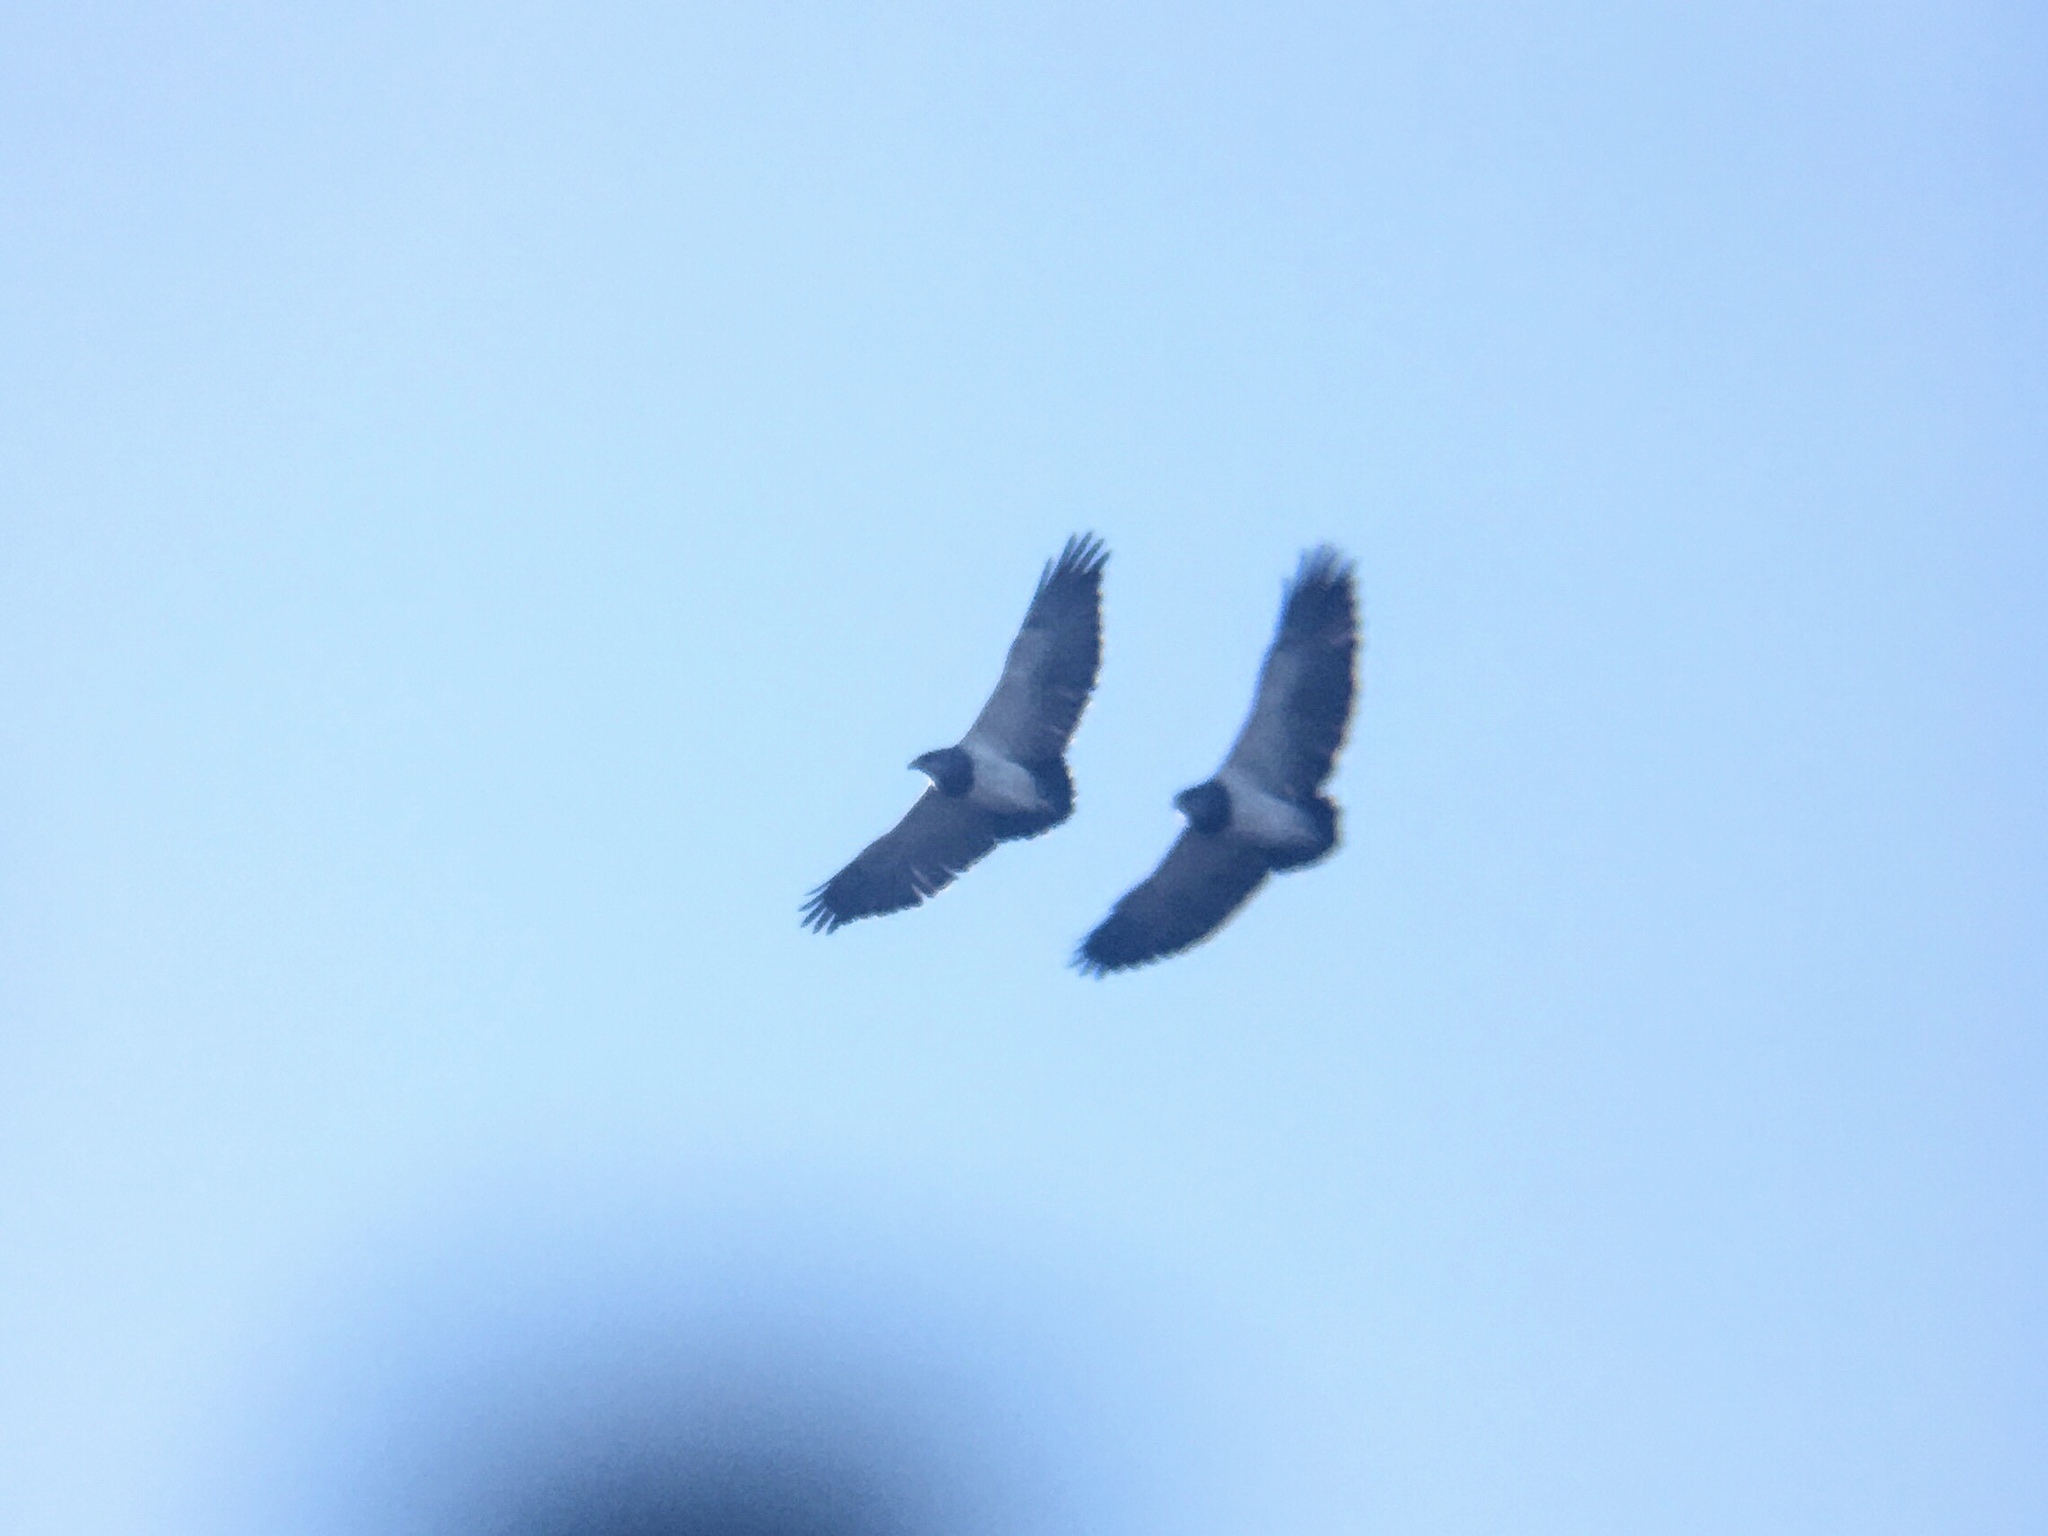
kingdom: Animalia
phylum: Chordata
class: Aves
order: Accipitriformes
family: Accipitridae
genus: Geranoaetus
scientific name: Geranoaetus melanoleucus
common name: Black-chested buzzard-eagle
